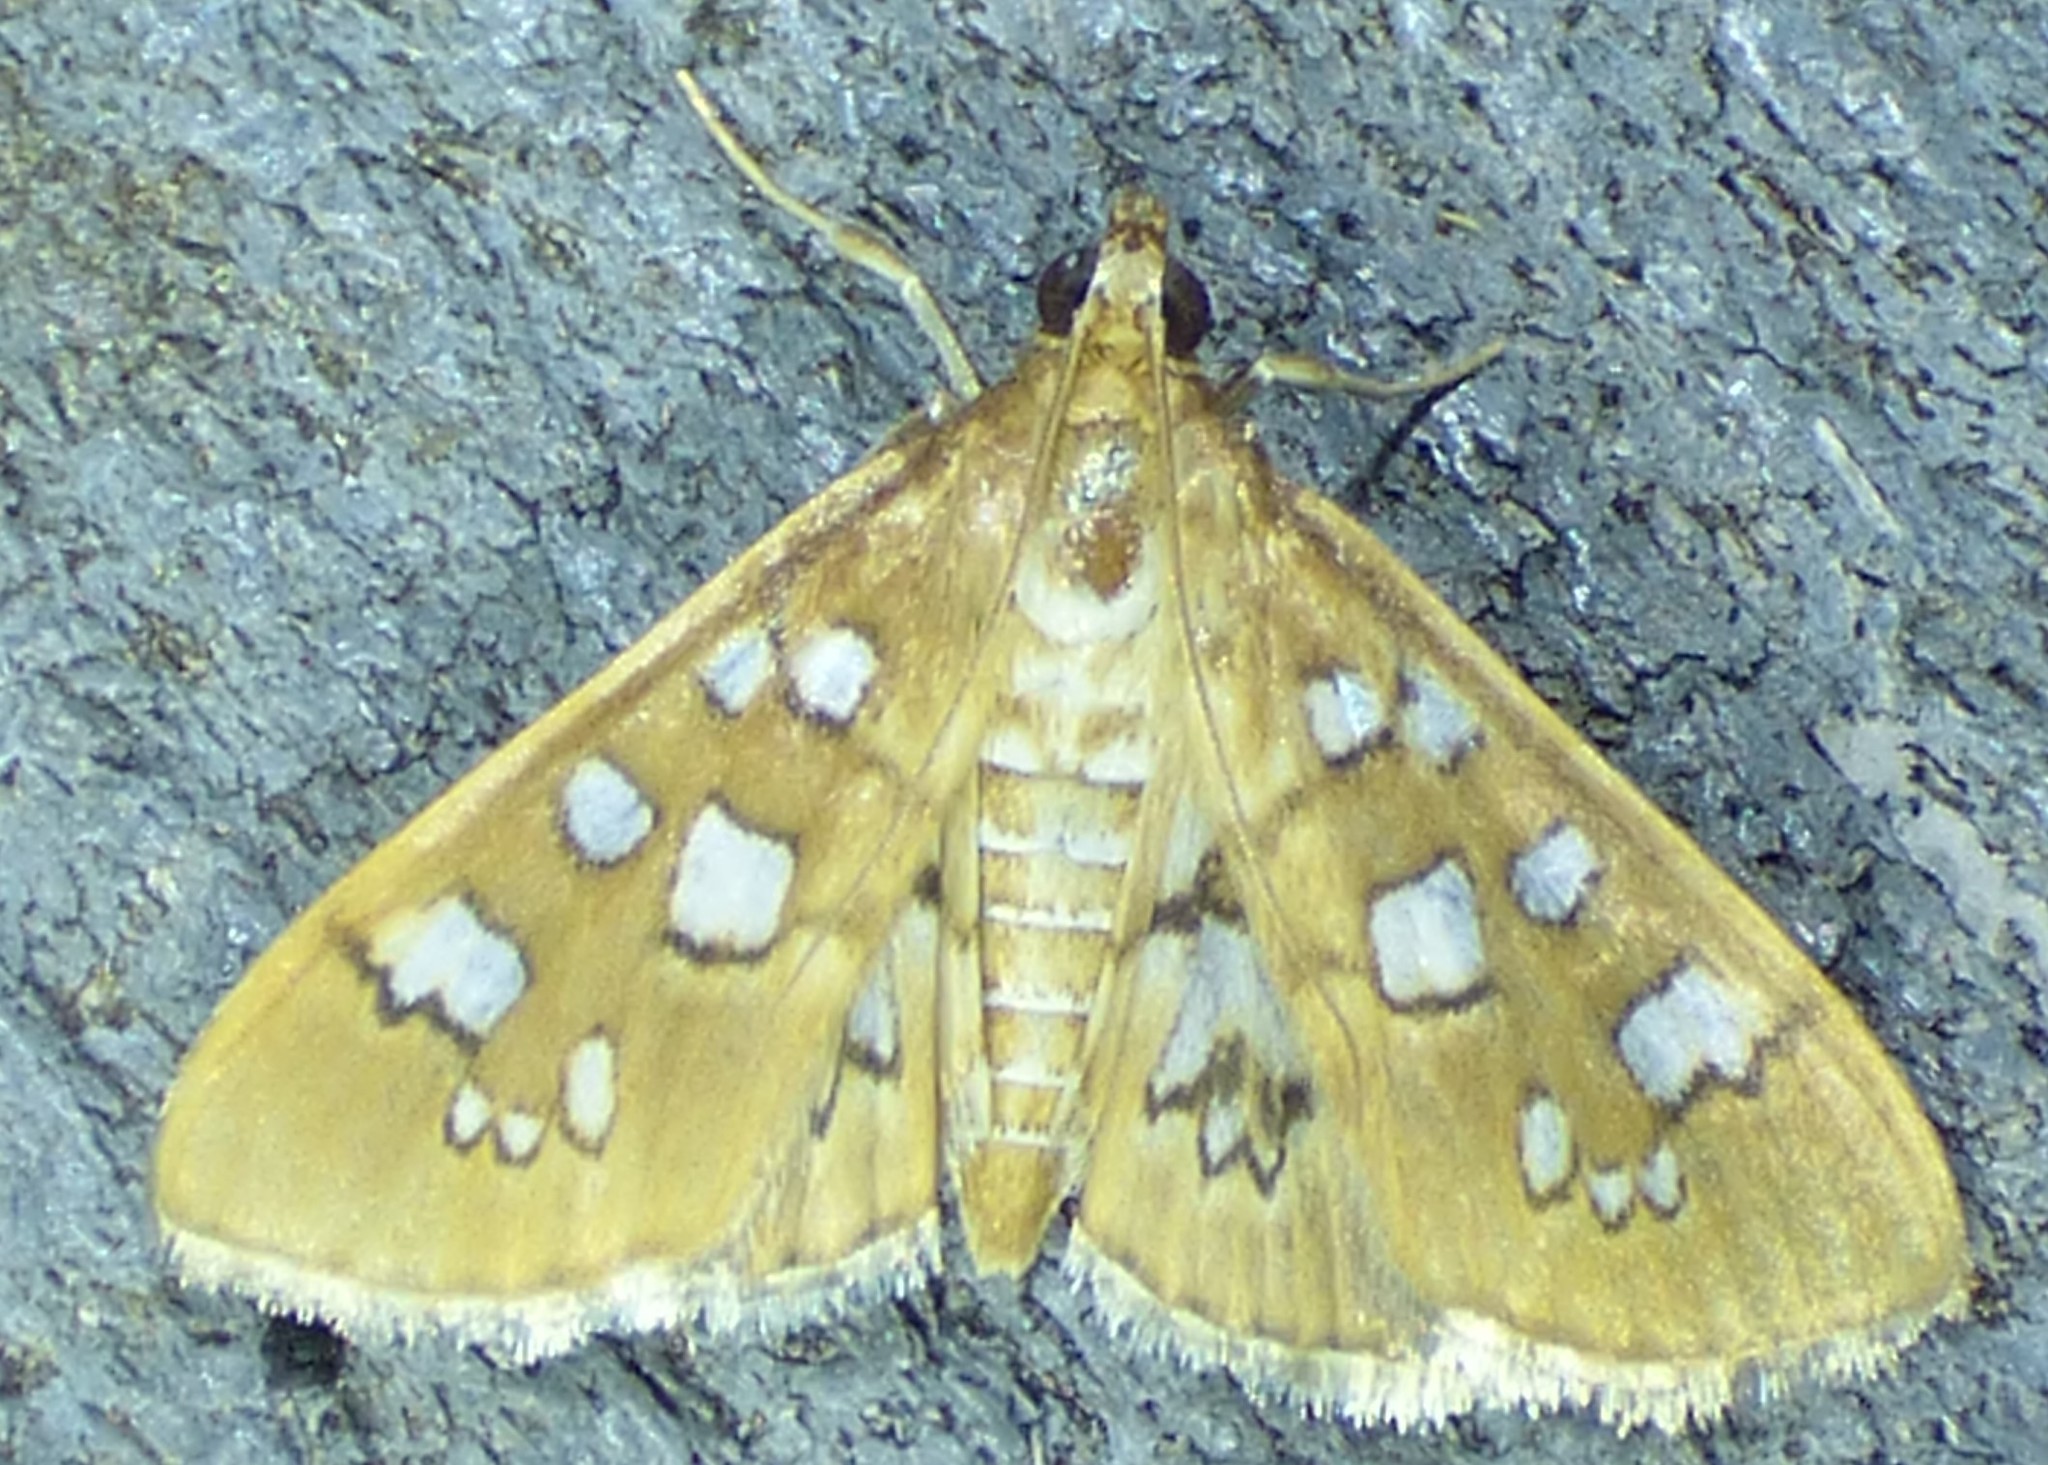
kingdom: Animalia
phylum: Arthropoda
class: Insecta
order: Lepidoptera
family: Crambidae
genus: Samea
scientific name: Samea baccatalis
